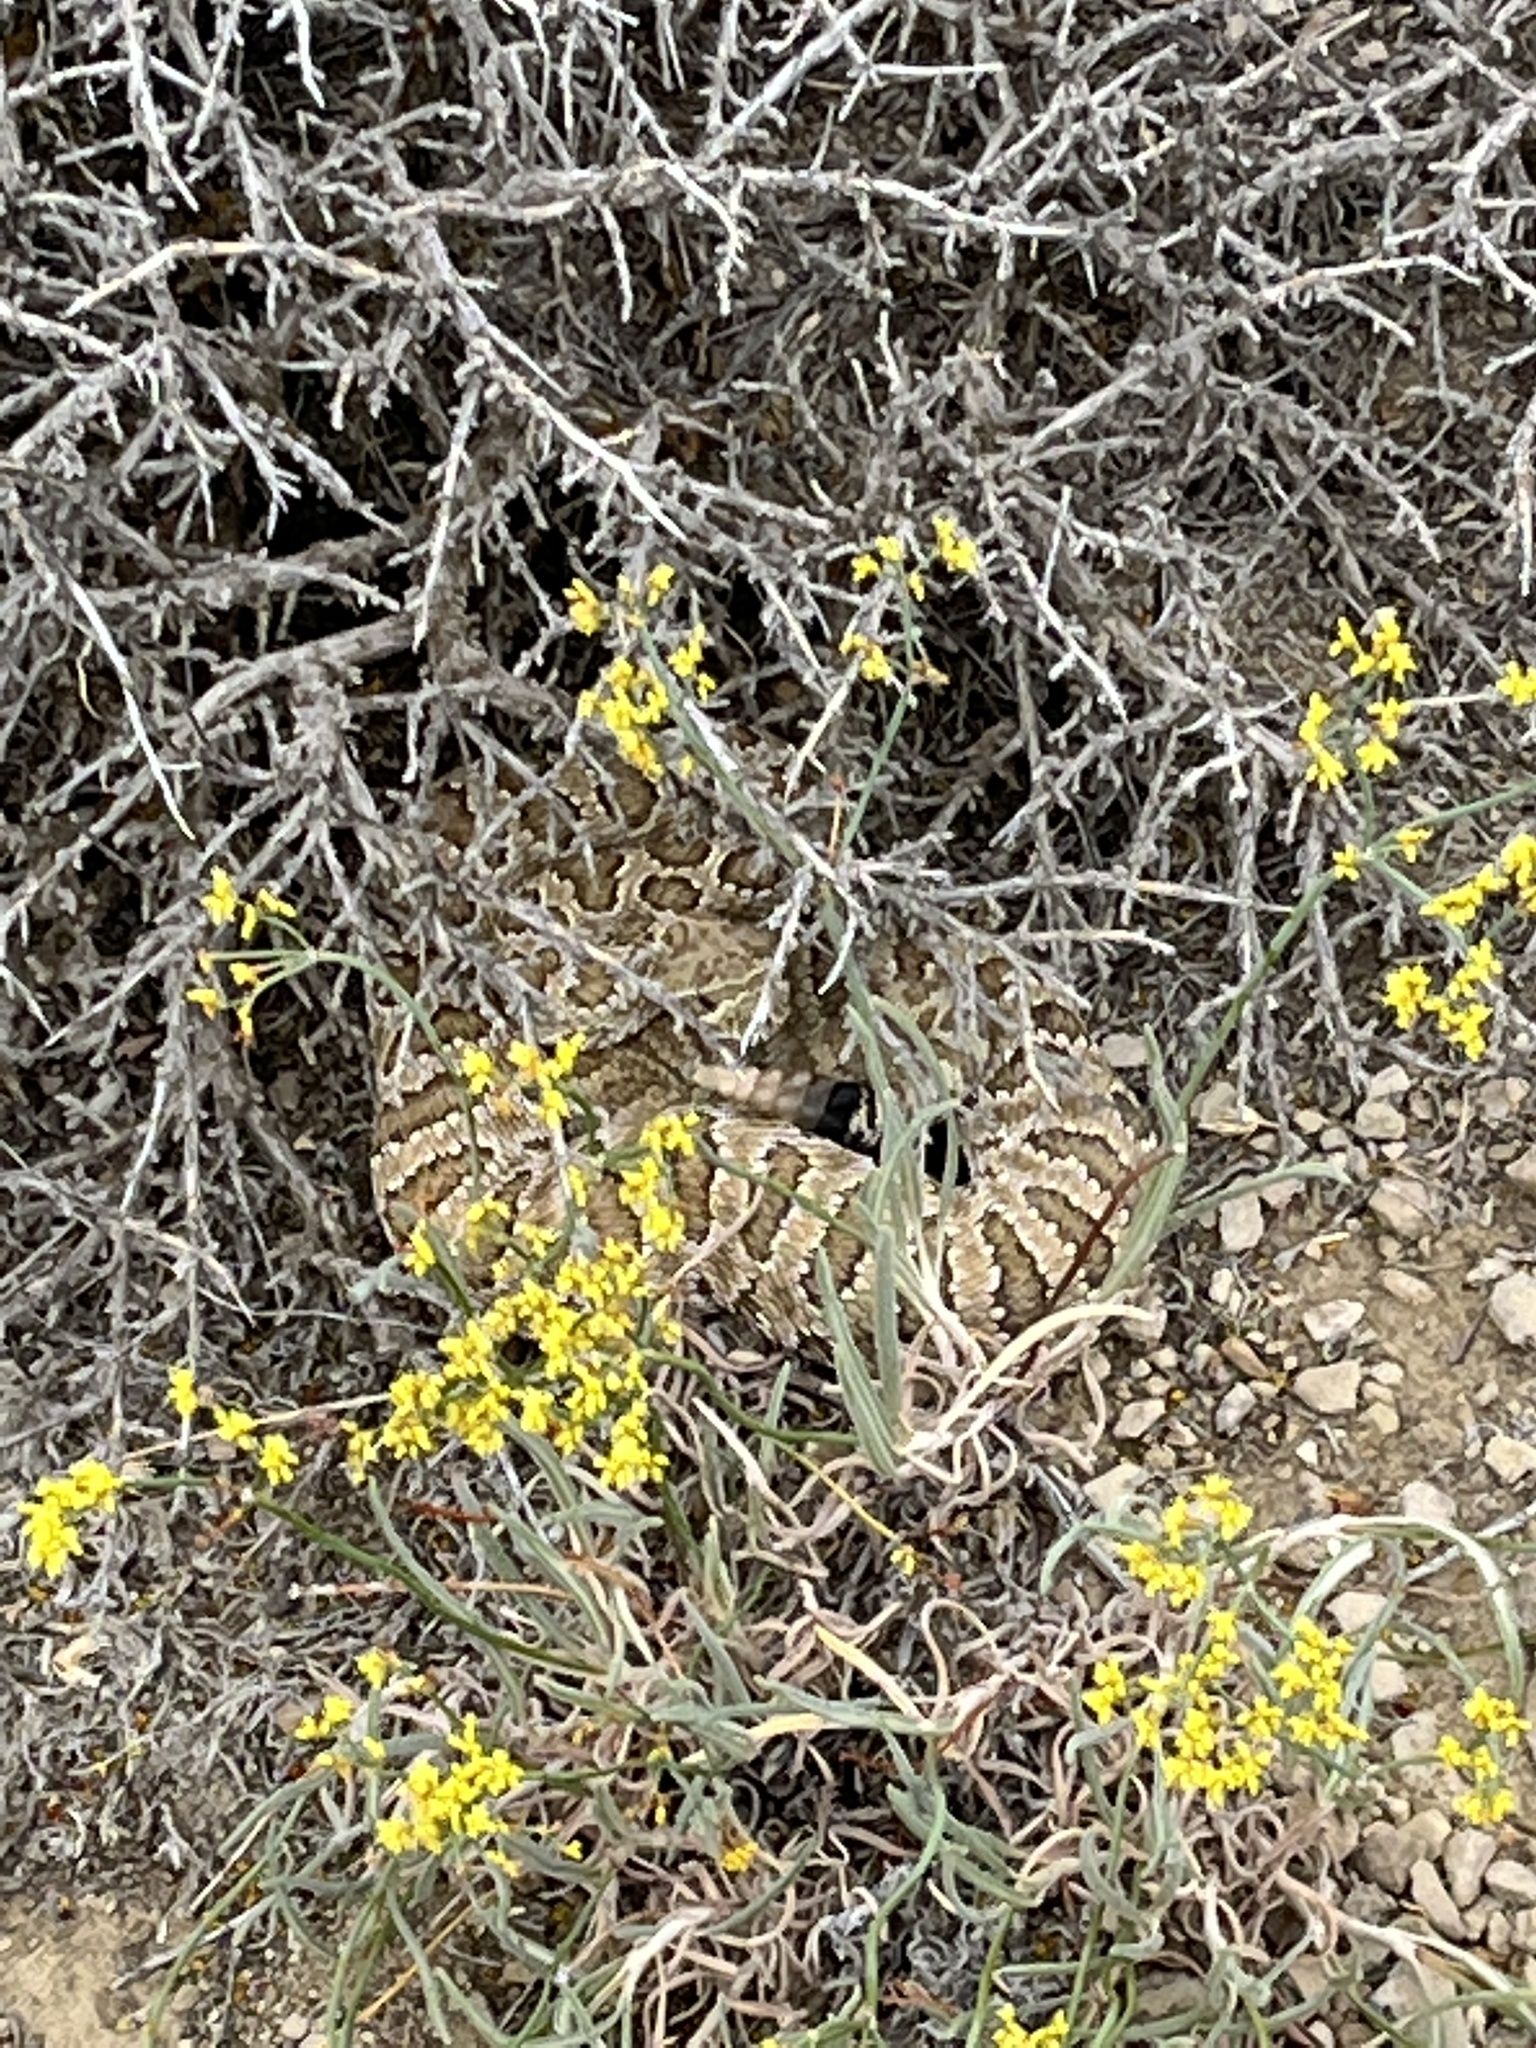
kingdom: Animalia
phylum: Chordata
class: Squamata
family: Viperidae
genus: Crotalus
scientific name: Crotalus viridis
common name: Prairie rattlesnake
